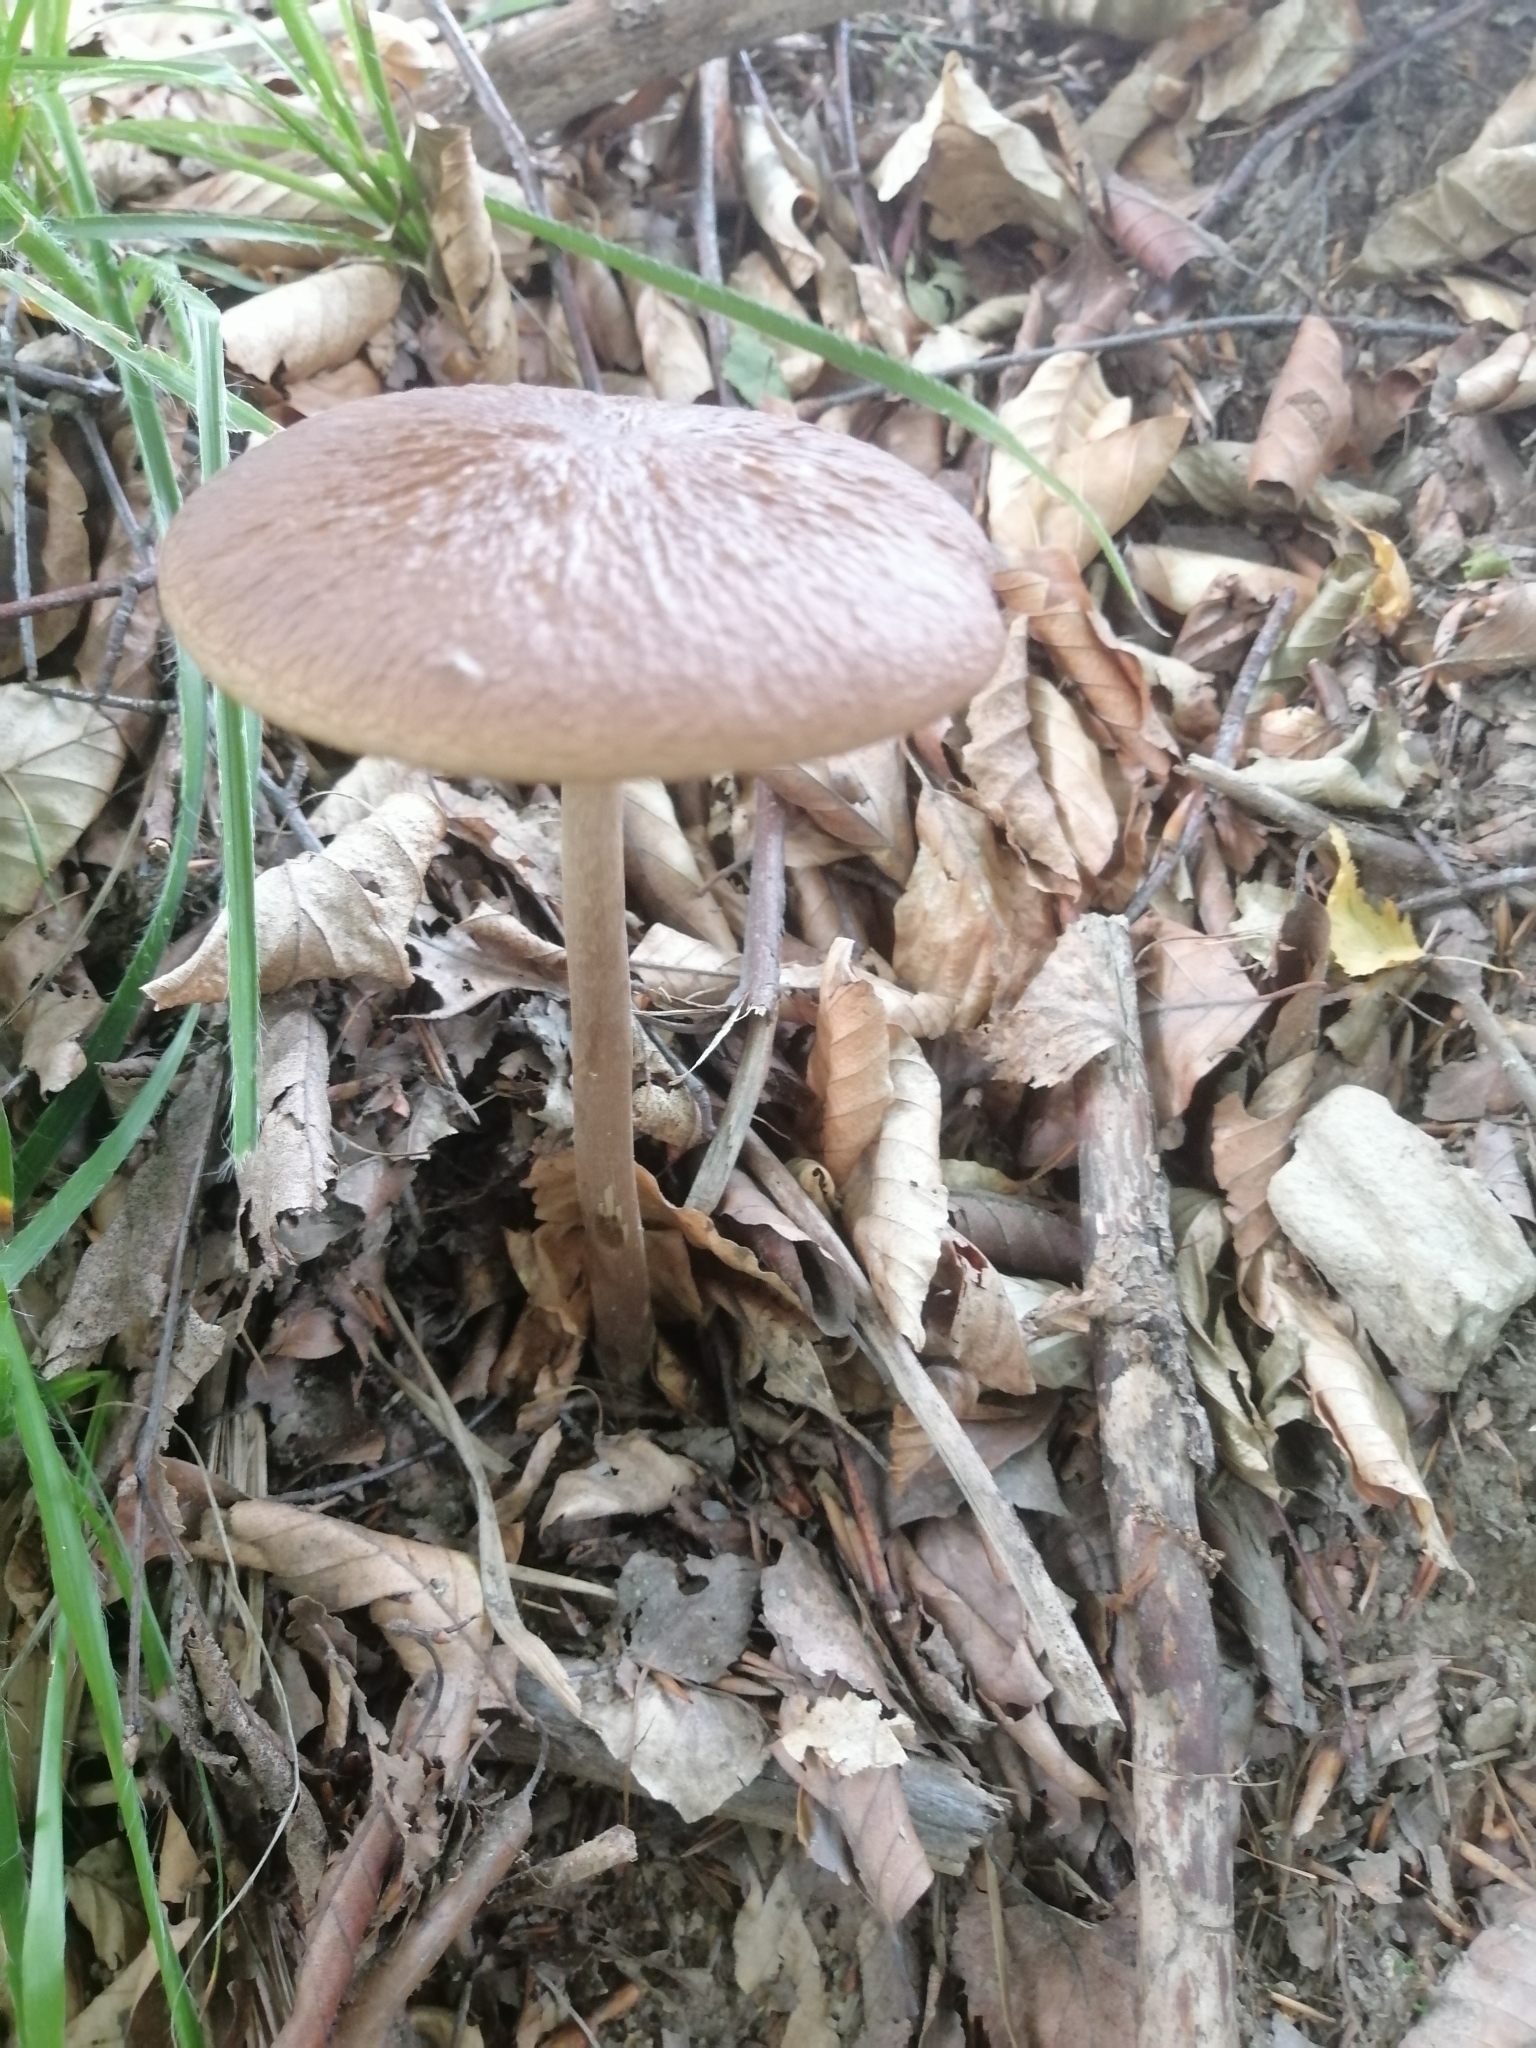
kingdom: Fungi
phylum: Basidiomycota
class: Agaricomycetes
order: Agaricales
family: Physalacriaceae
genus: Hymenopellis
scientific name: Hymenopellis radicata
